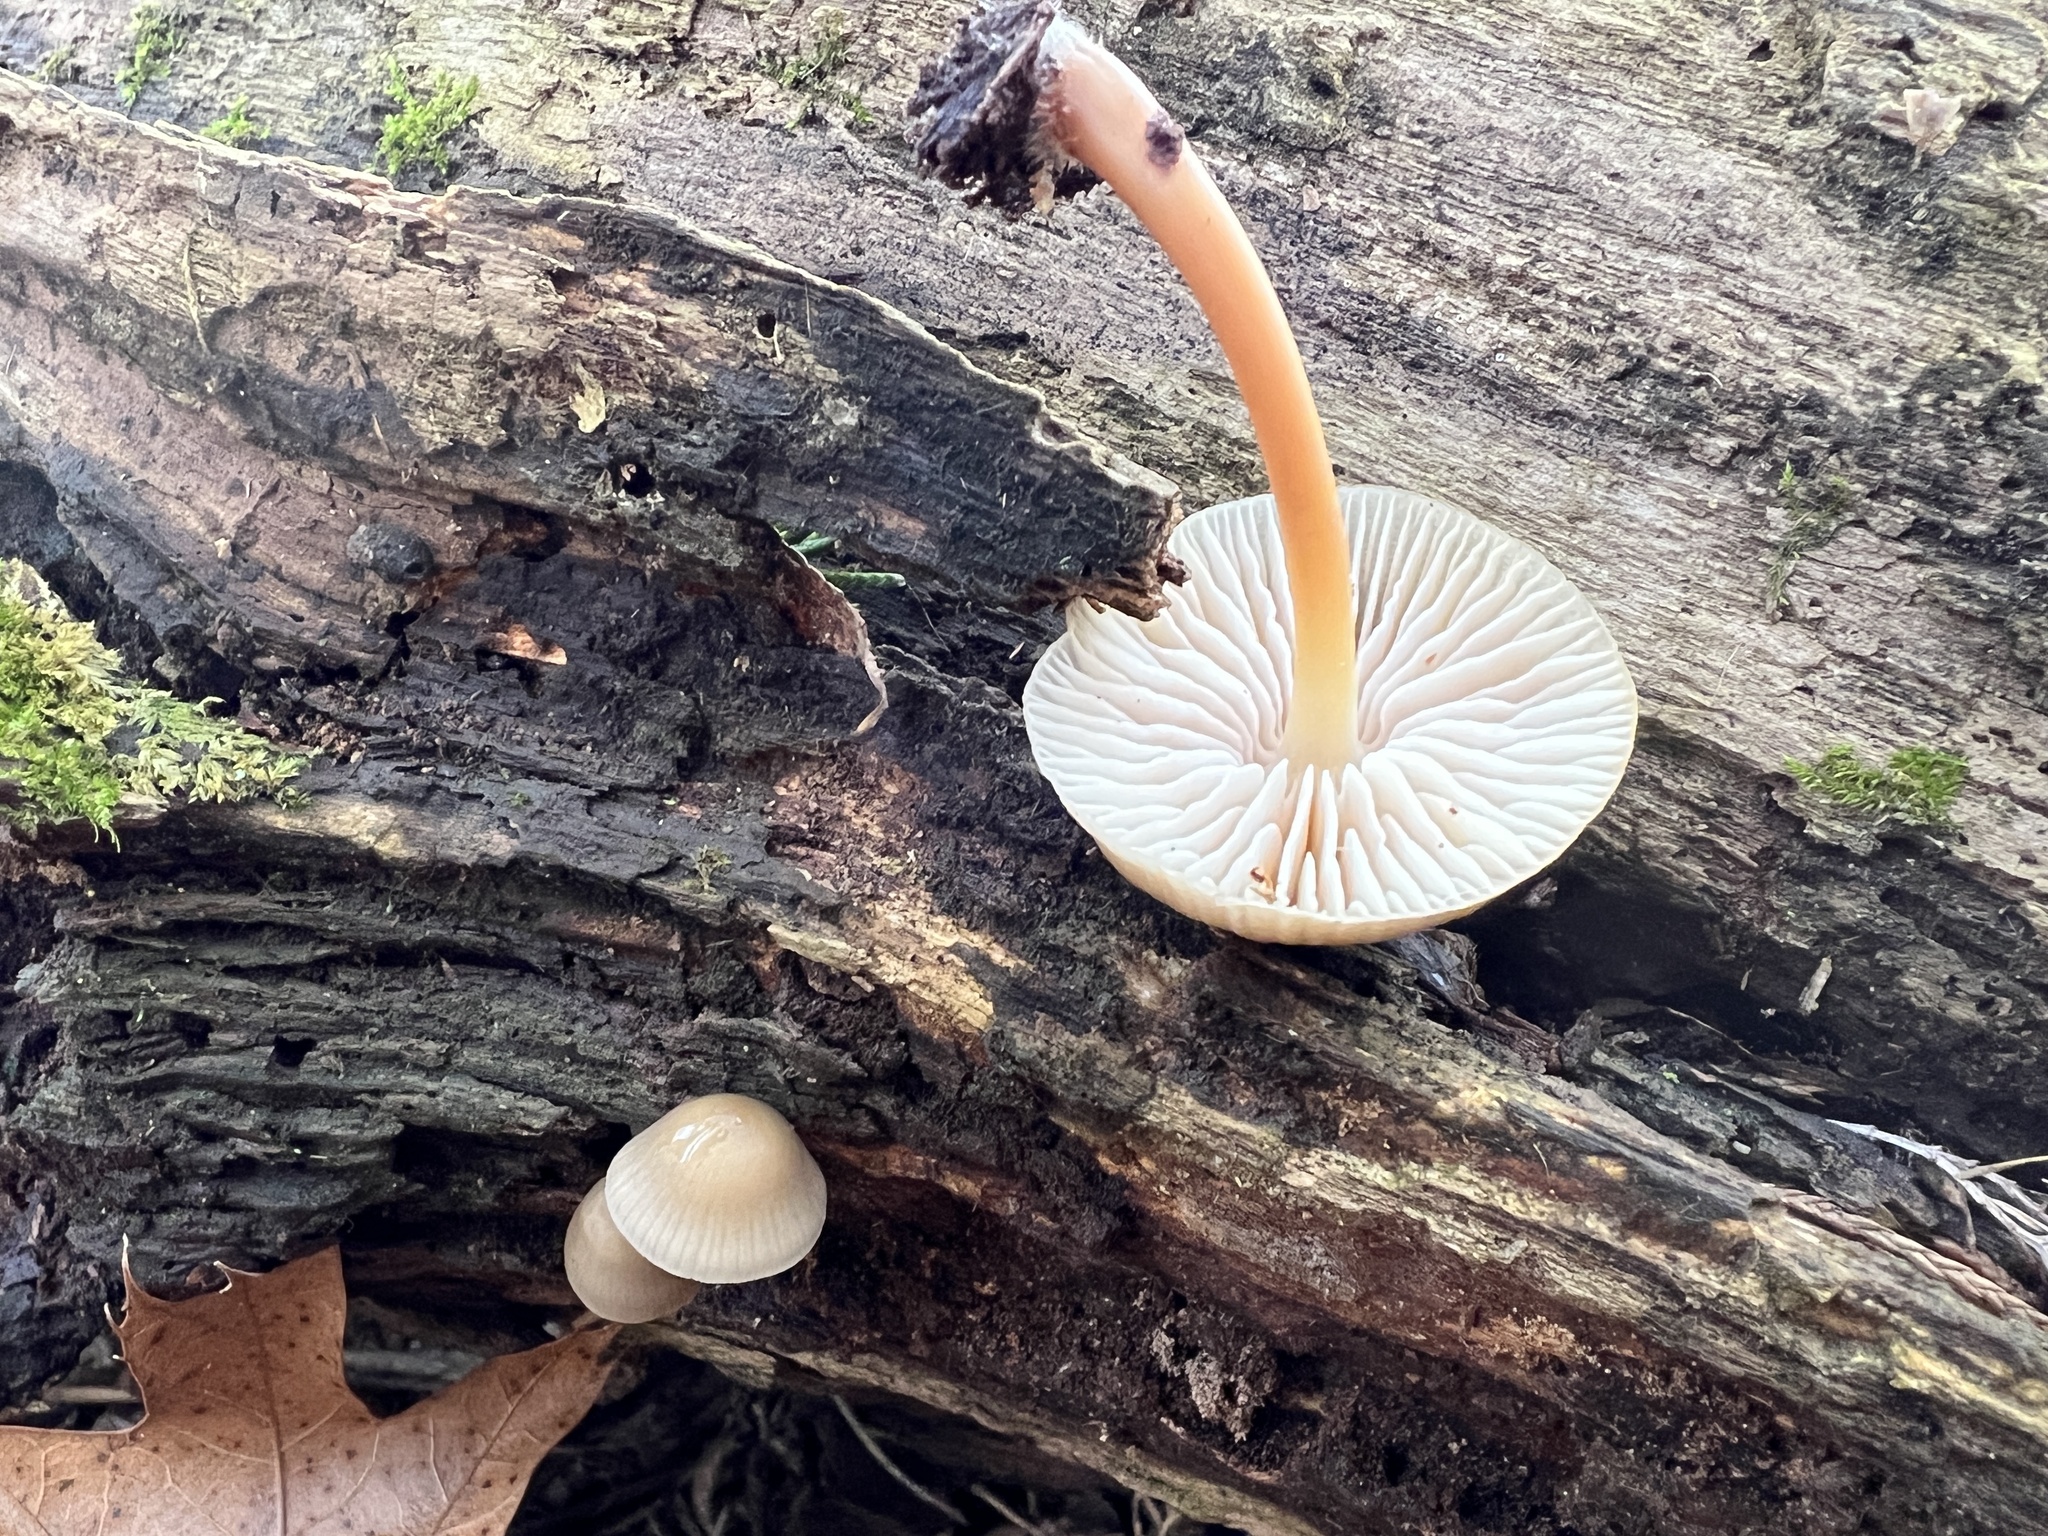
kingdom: Fungi
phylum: Basidiomycota
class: Agaricomycetes
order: Agaricales
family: Mycenaceae
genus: Mycena
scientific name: Mycena galericulata
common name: Bonnet mycena
